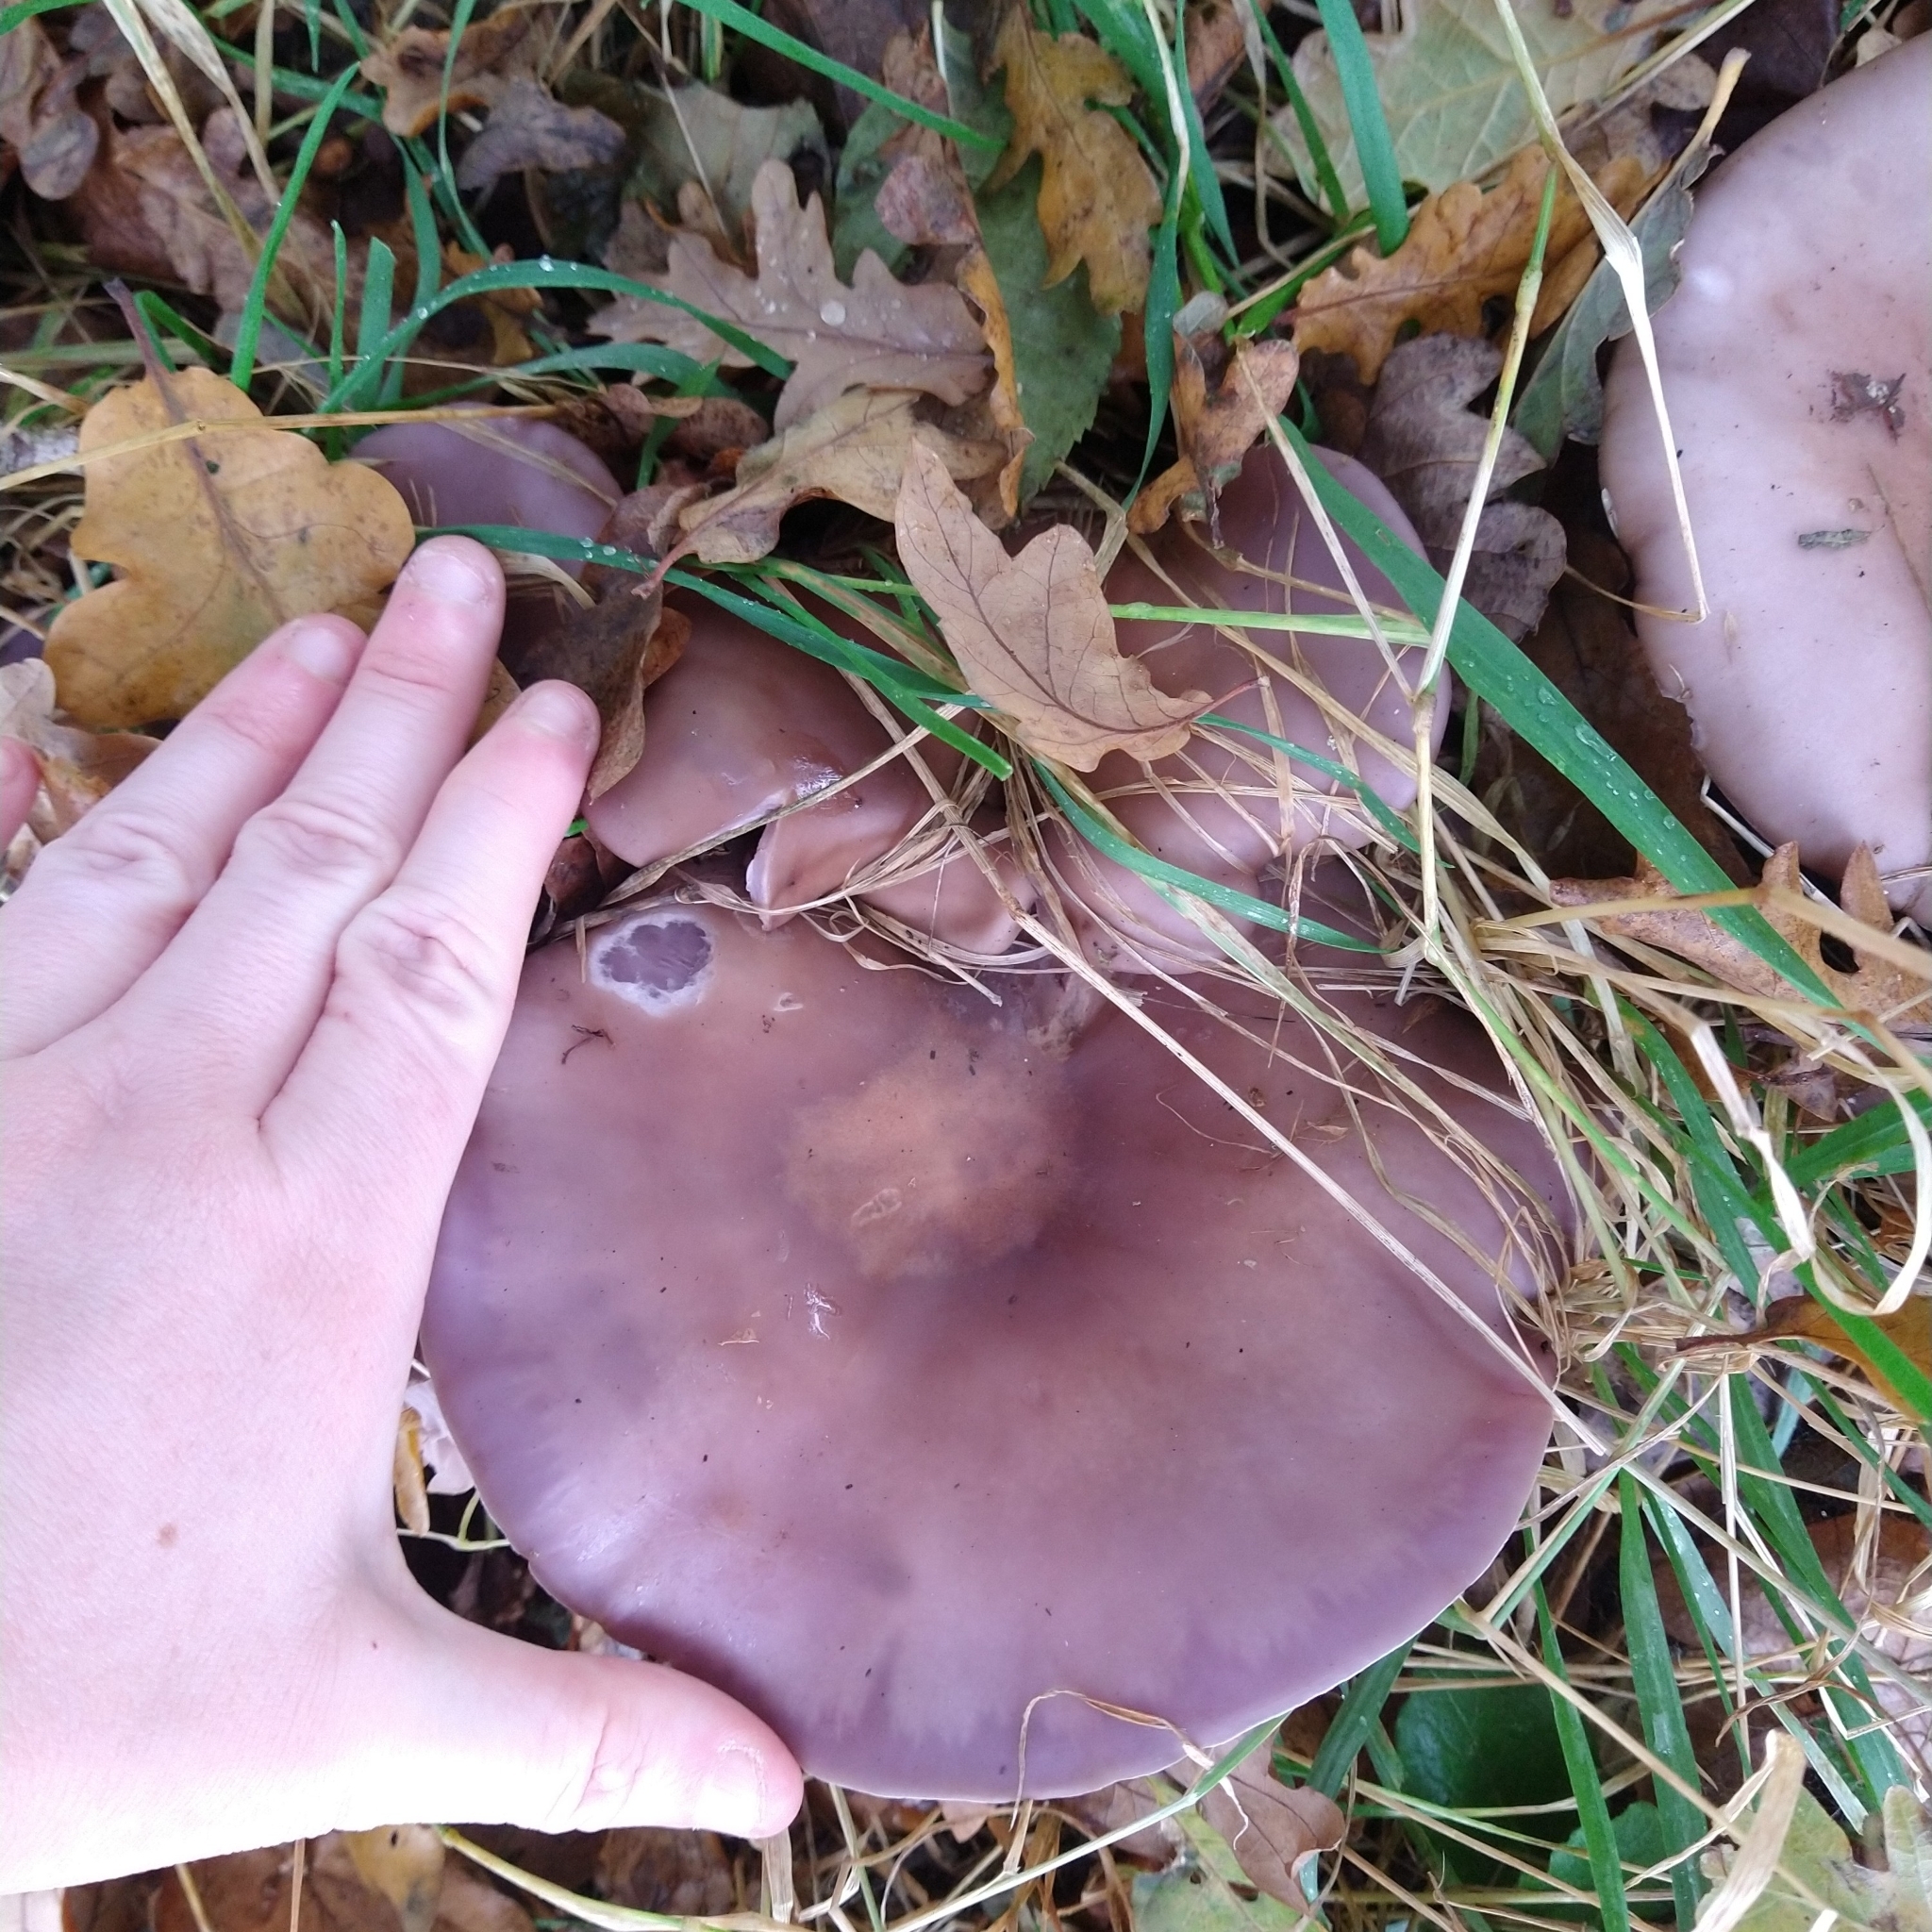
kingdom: Fungi
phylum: Basidiomycota
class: Agaricomycetes
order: Agaricales
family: Tricholomataceae
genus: Collybia
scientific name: Collybia
